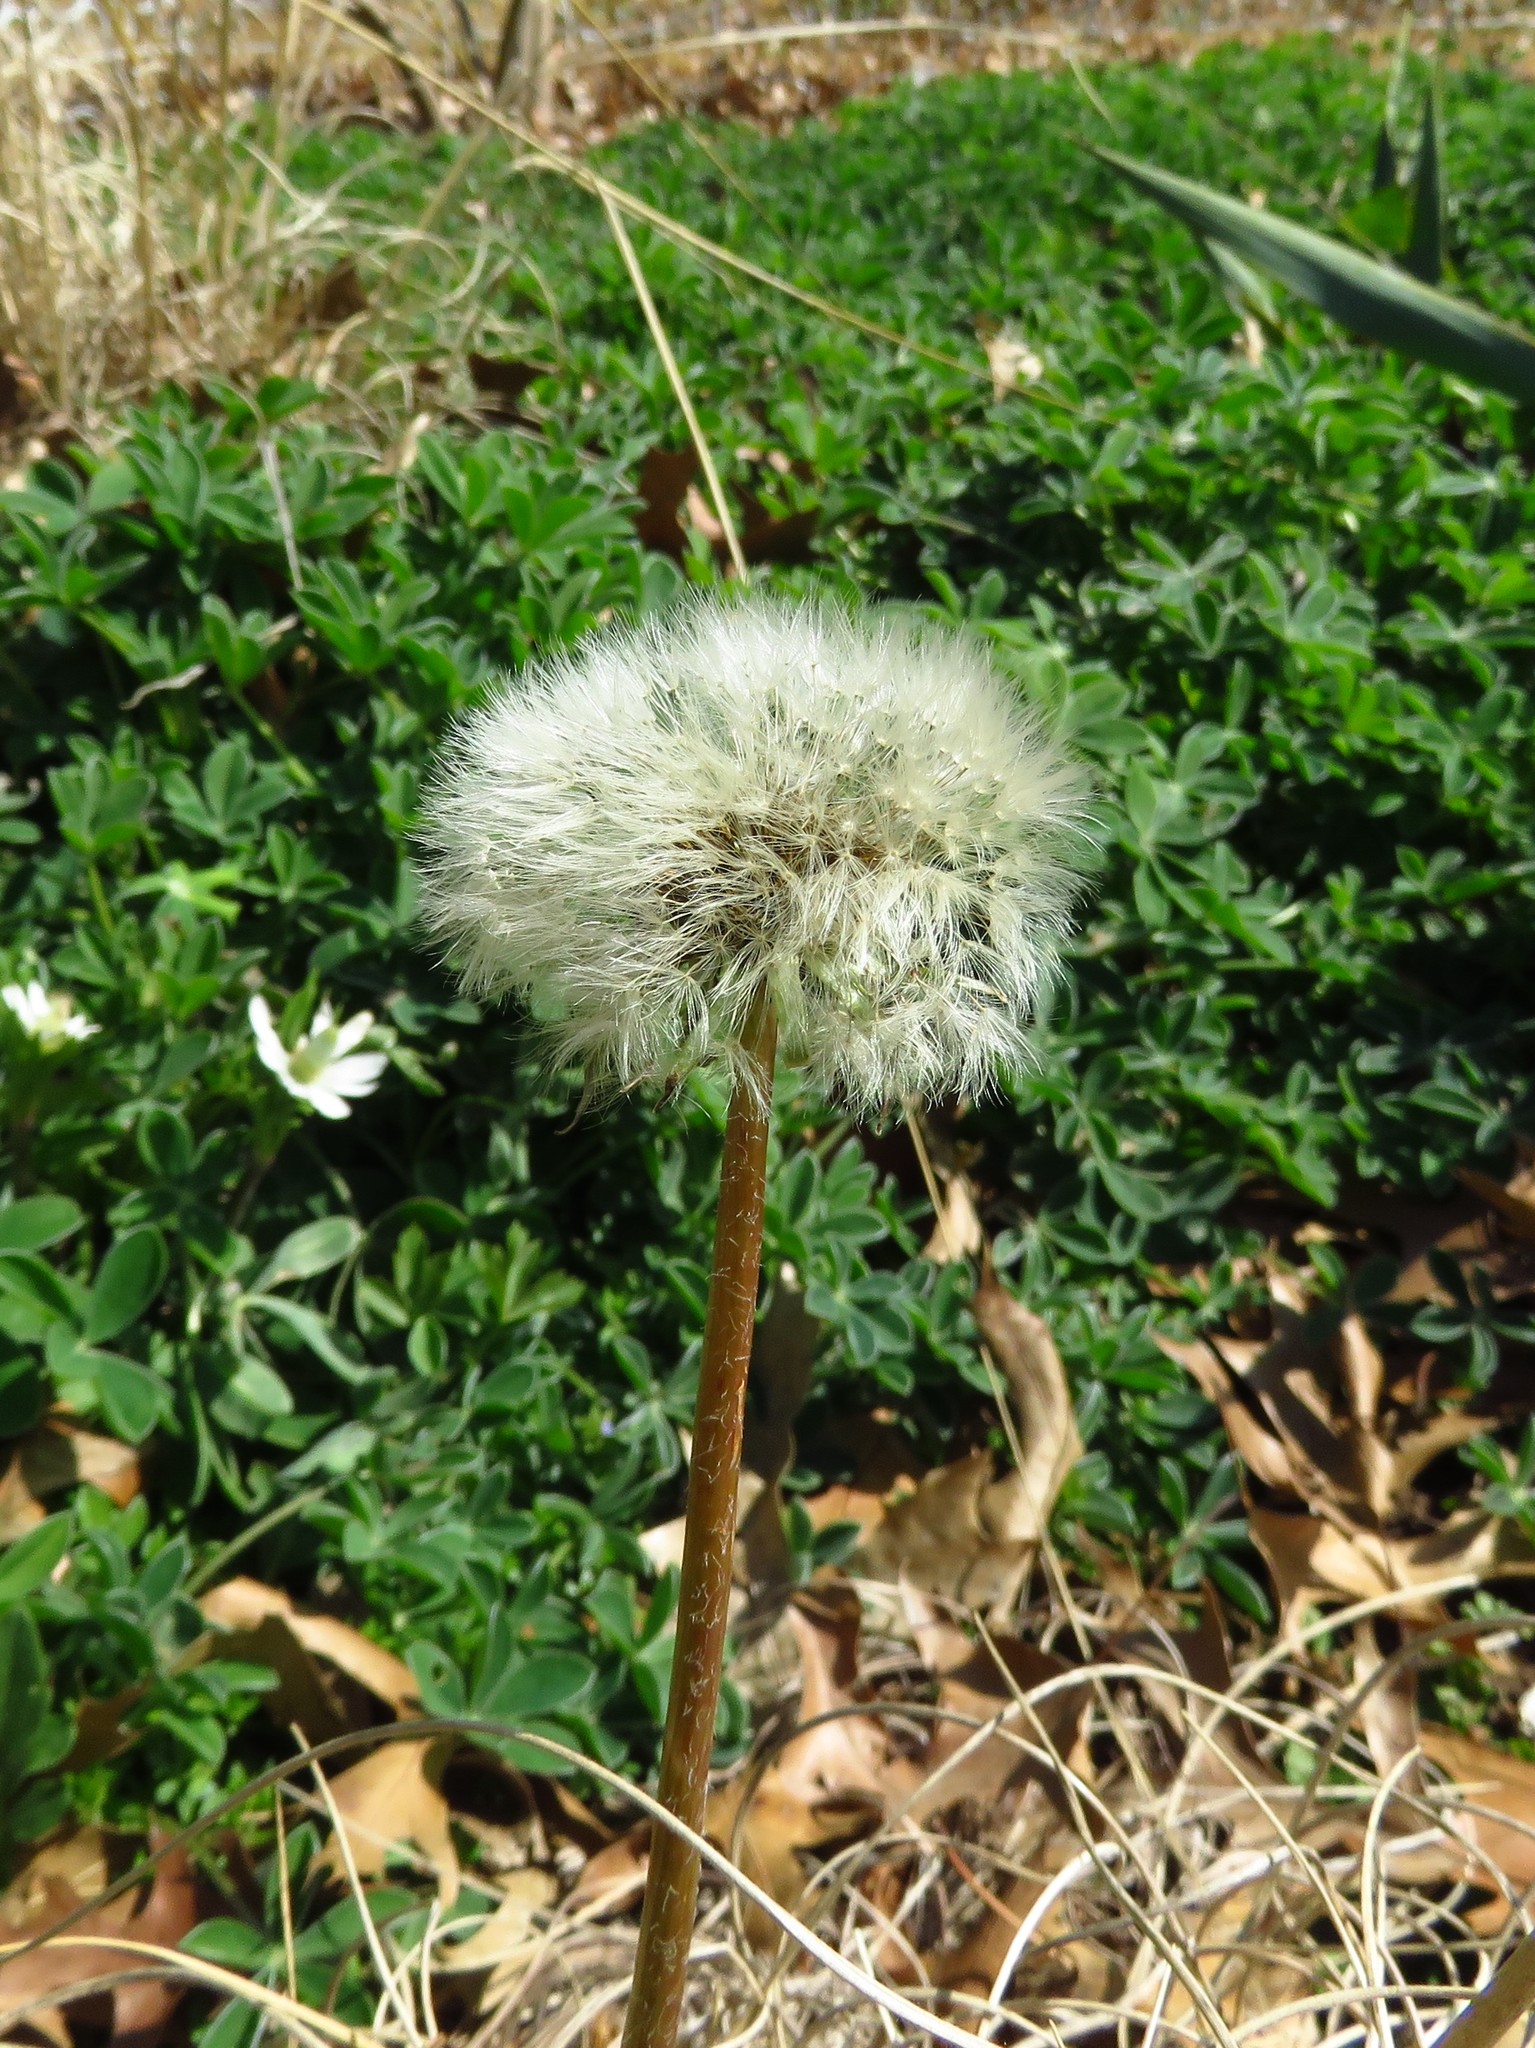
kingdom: Plantae
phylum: Tracheophyta
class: Magnoliopsida
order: Asterales
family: Asteraceae
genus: Taraxacum
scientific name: Taraxacum officinale
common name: Common dandelion
